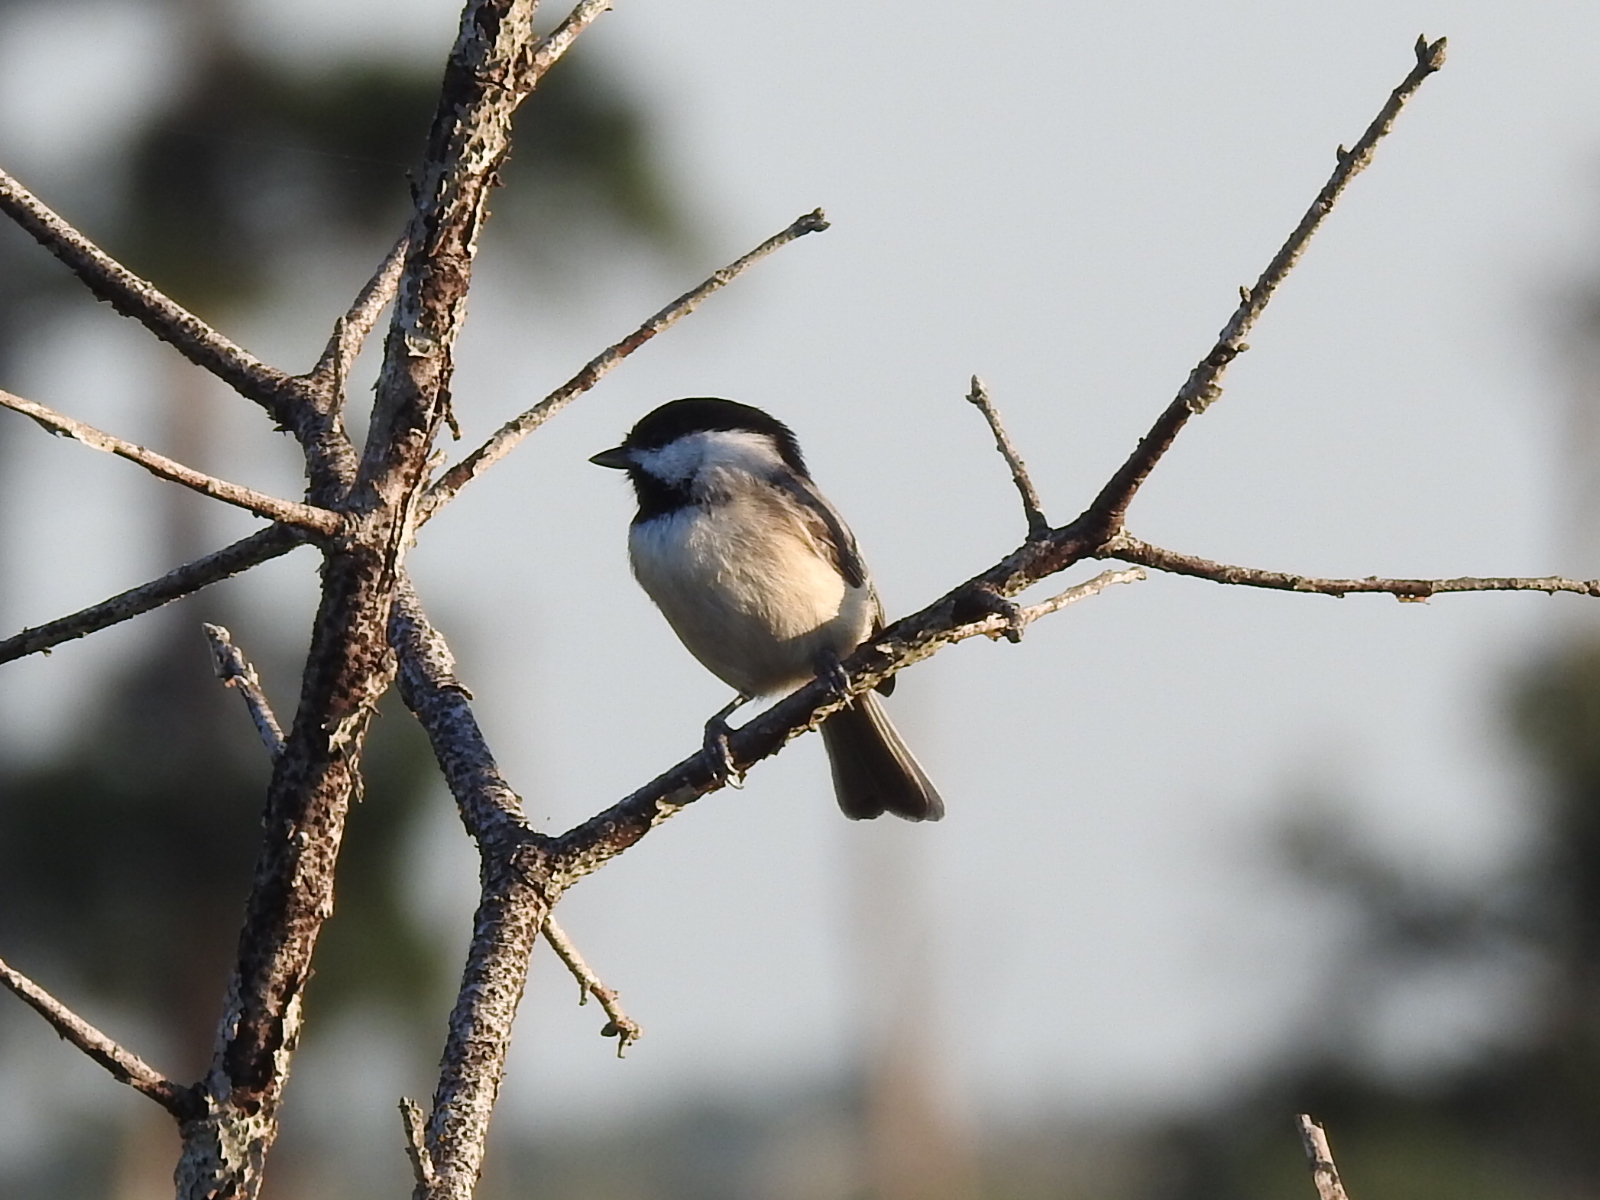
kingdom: Animalia
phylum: Chordata
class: Aves
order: Passeriformes
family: Paridae
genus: Poecile
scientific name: Poecile carolinensis
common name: Carolina chickadee
